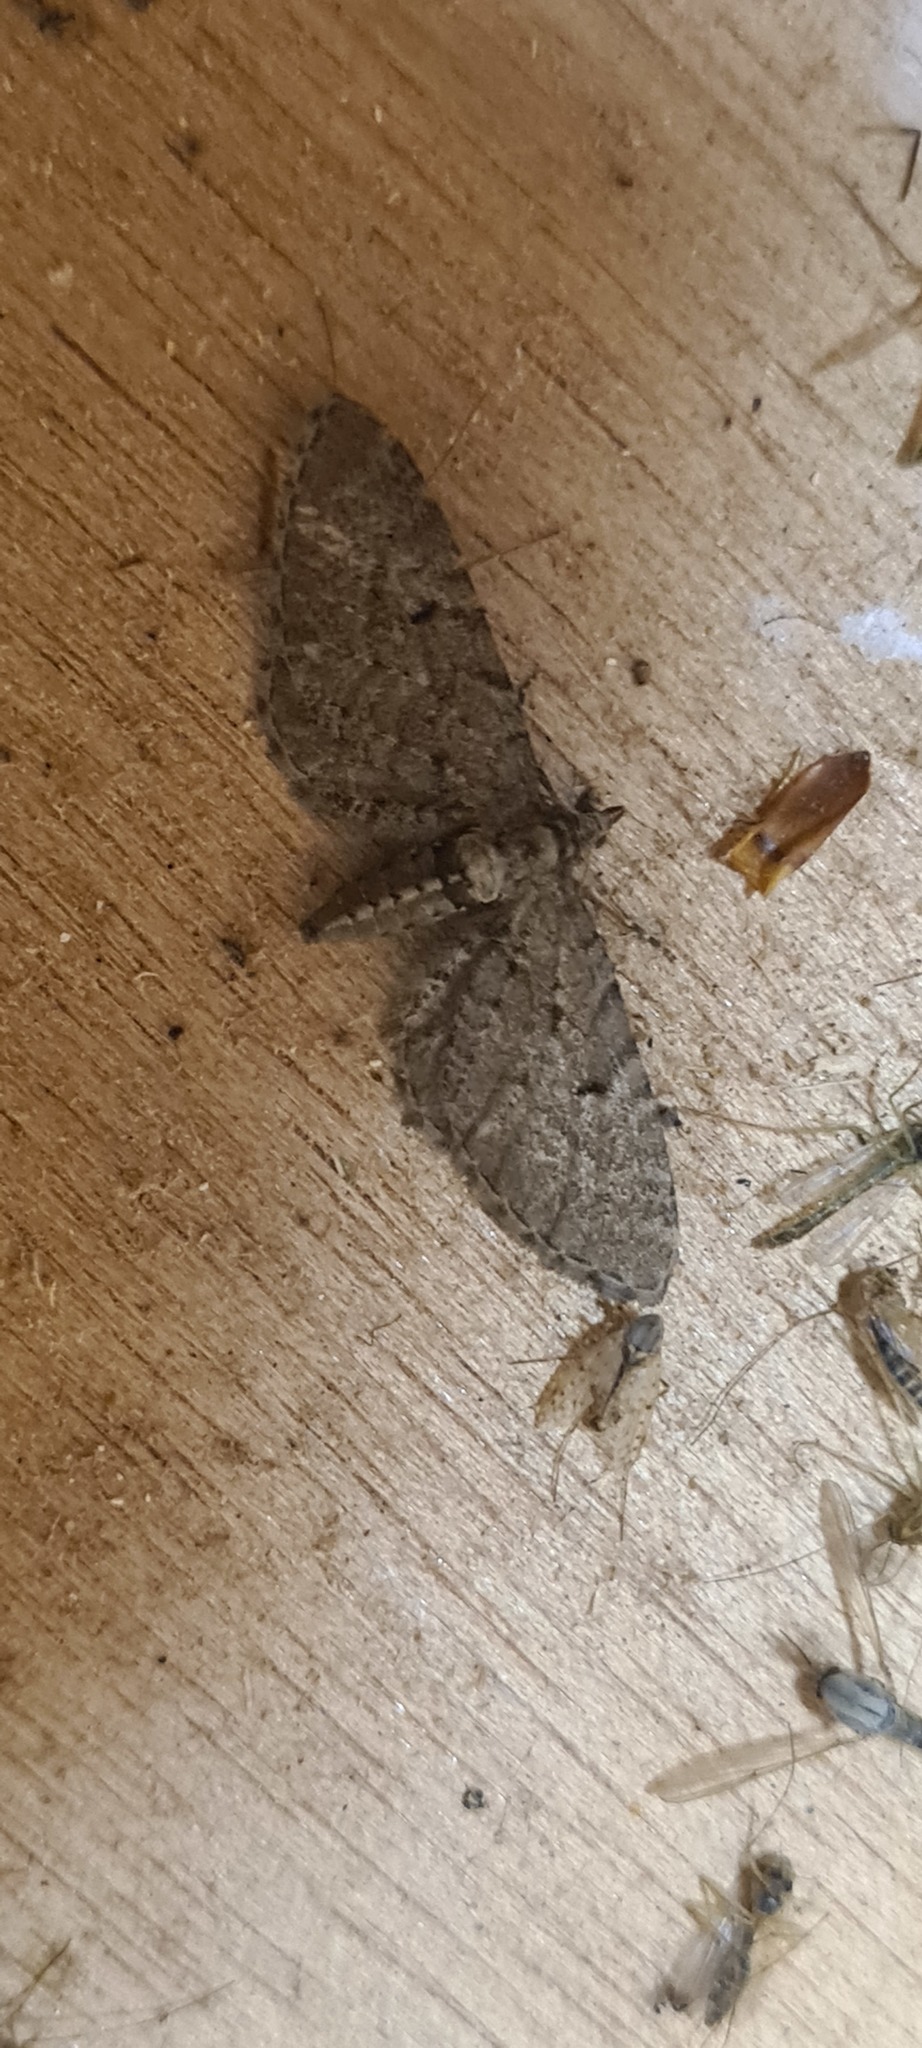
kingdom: Animalia
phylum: Arthropoda
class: Insecta
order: Lepidoptera
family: Geometridae
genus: Eupithecia
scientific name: Eupithecia intricata
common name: Freyers pug
